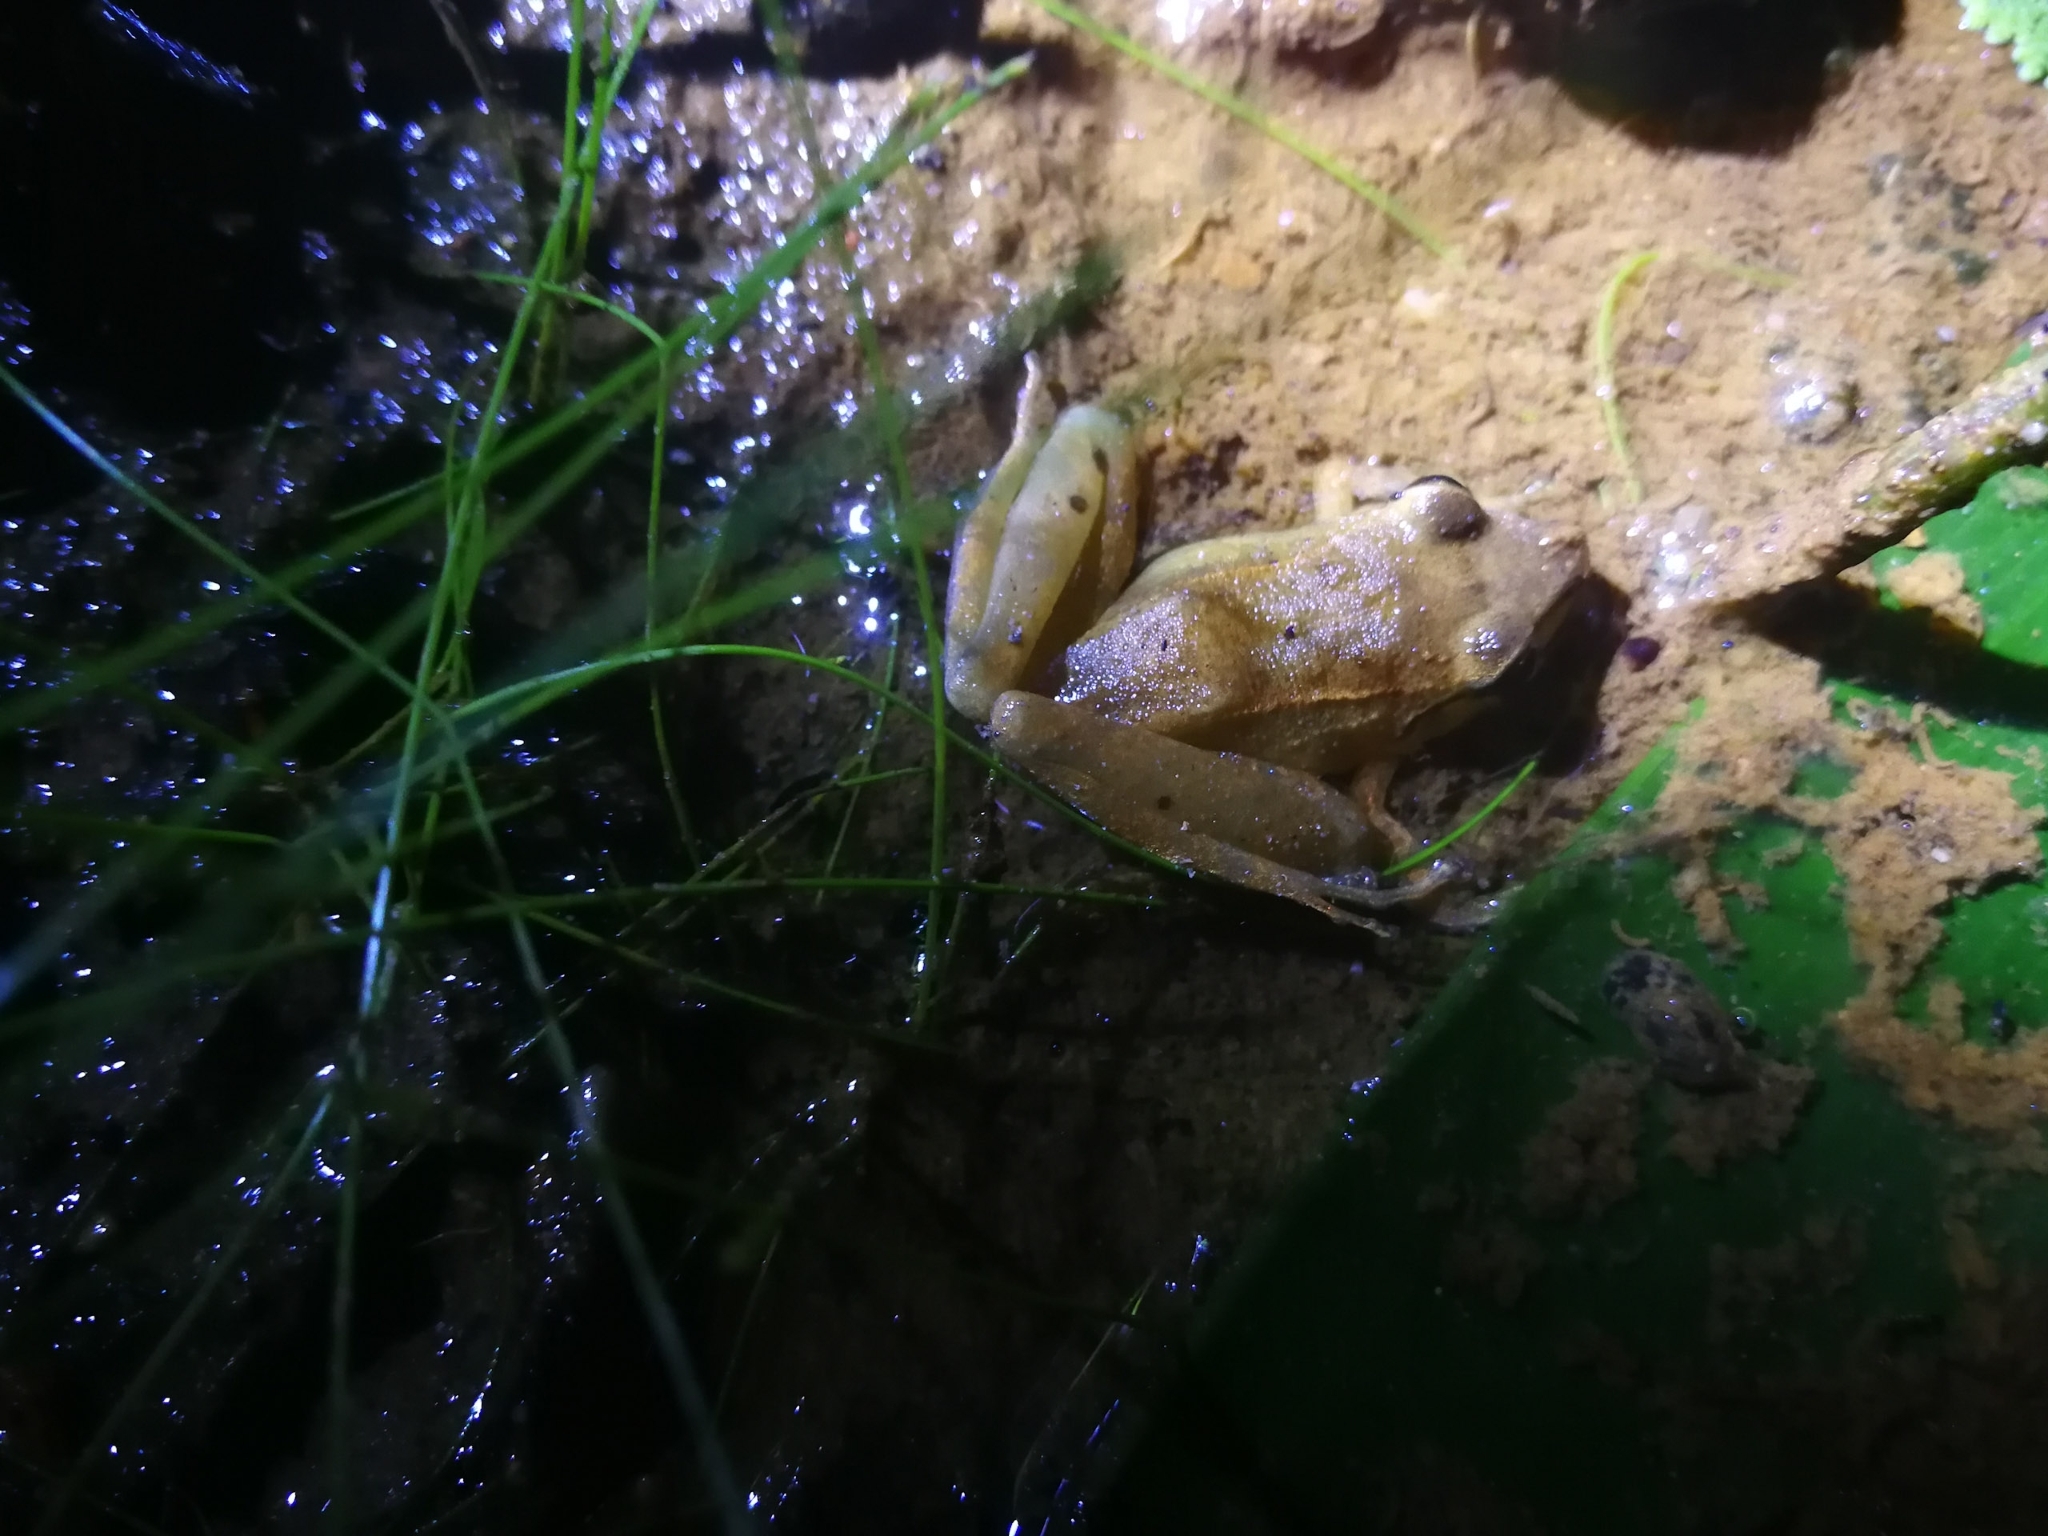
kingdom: Animalia
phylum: Chordata
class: Amphibia
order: Anura
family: Craugastoridae
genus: Pristimantis
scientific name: Pristimantis achatinus
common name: Cachabi robber frog
